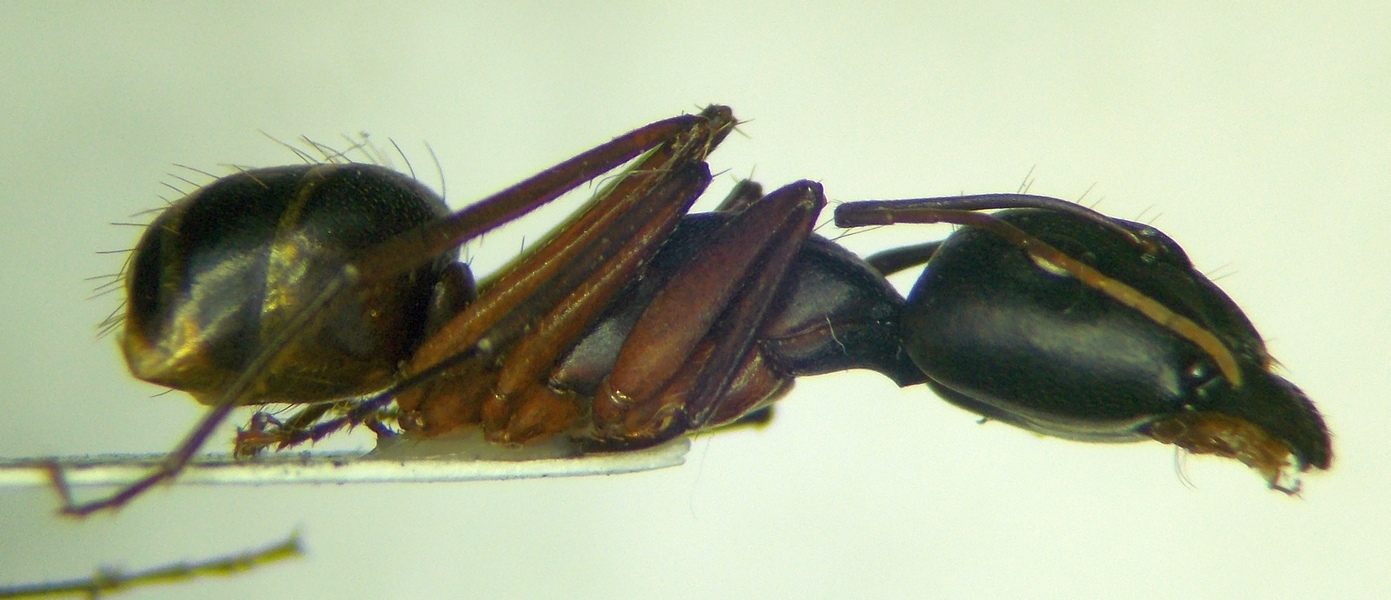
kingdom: Animalia
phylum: Arthropoda
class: Insecta
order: Hymenoptera
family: Formicidae
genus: Camponotus
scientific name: Camponotus sanctus
